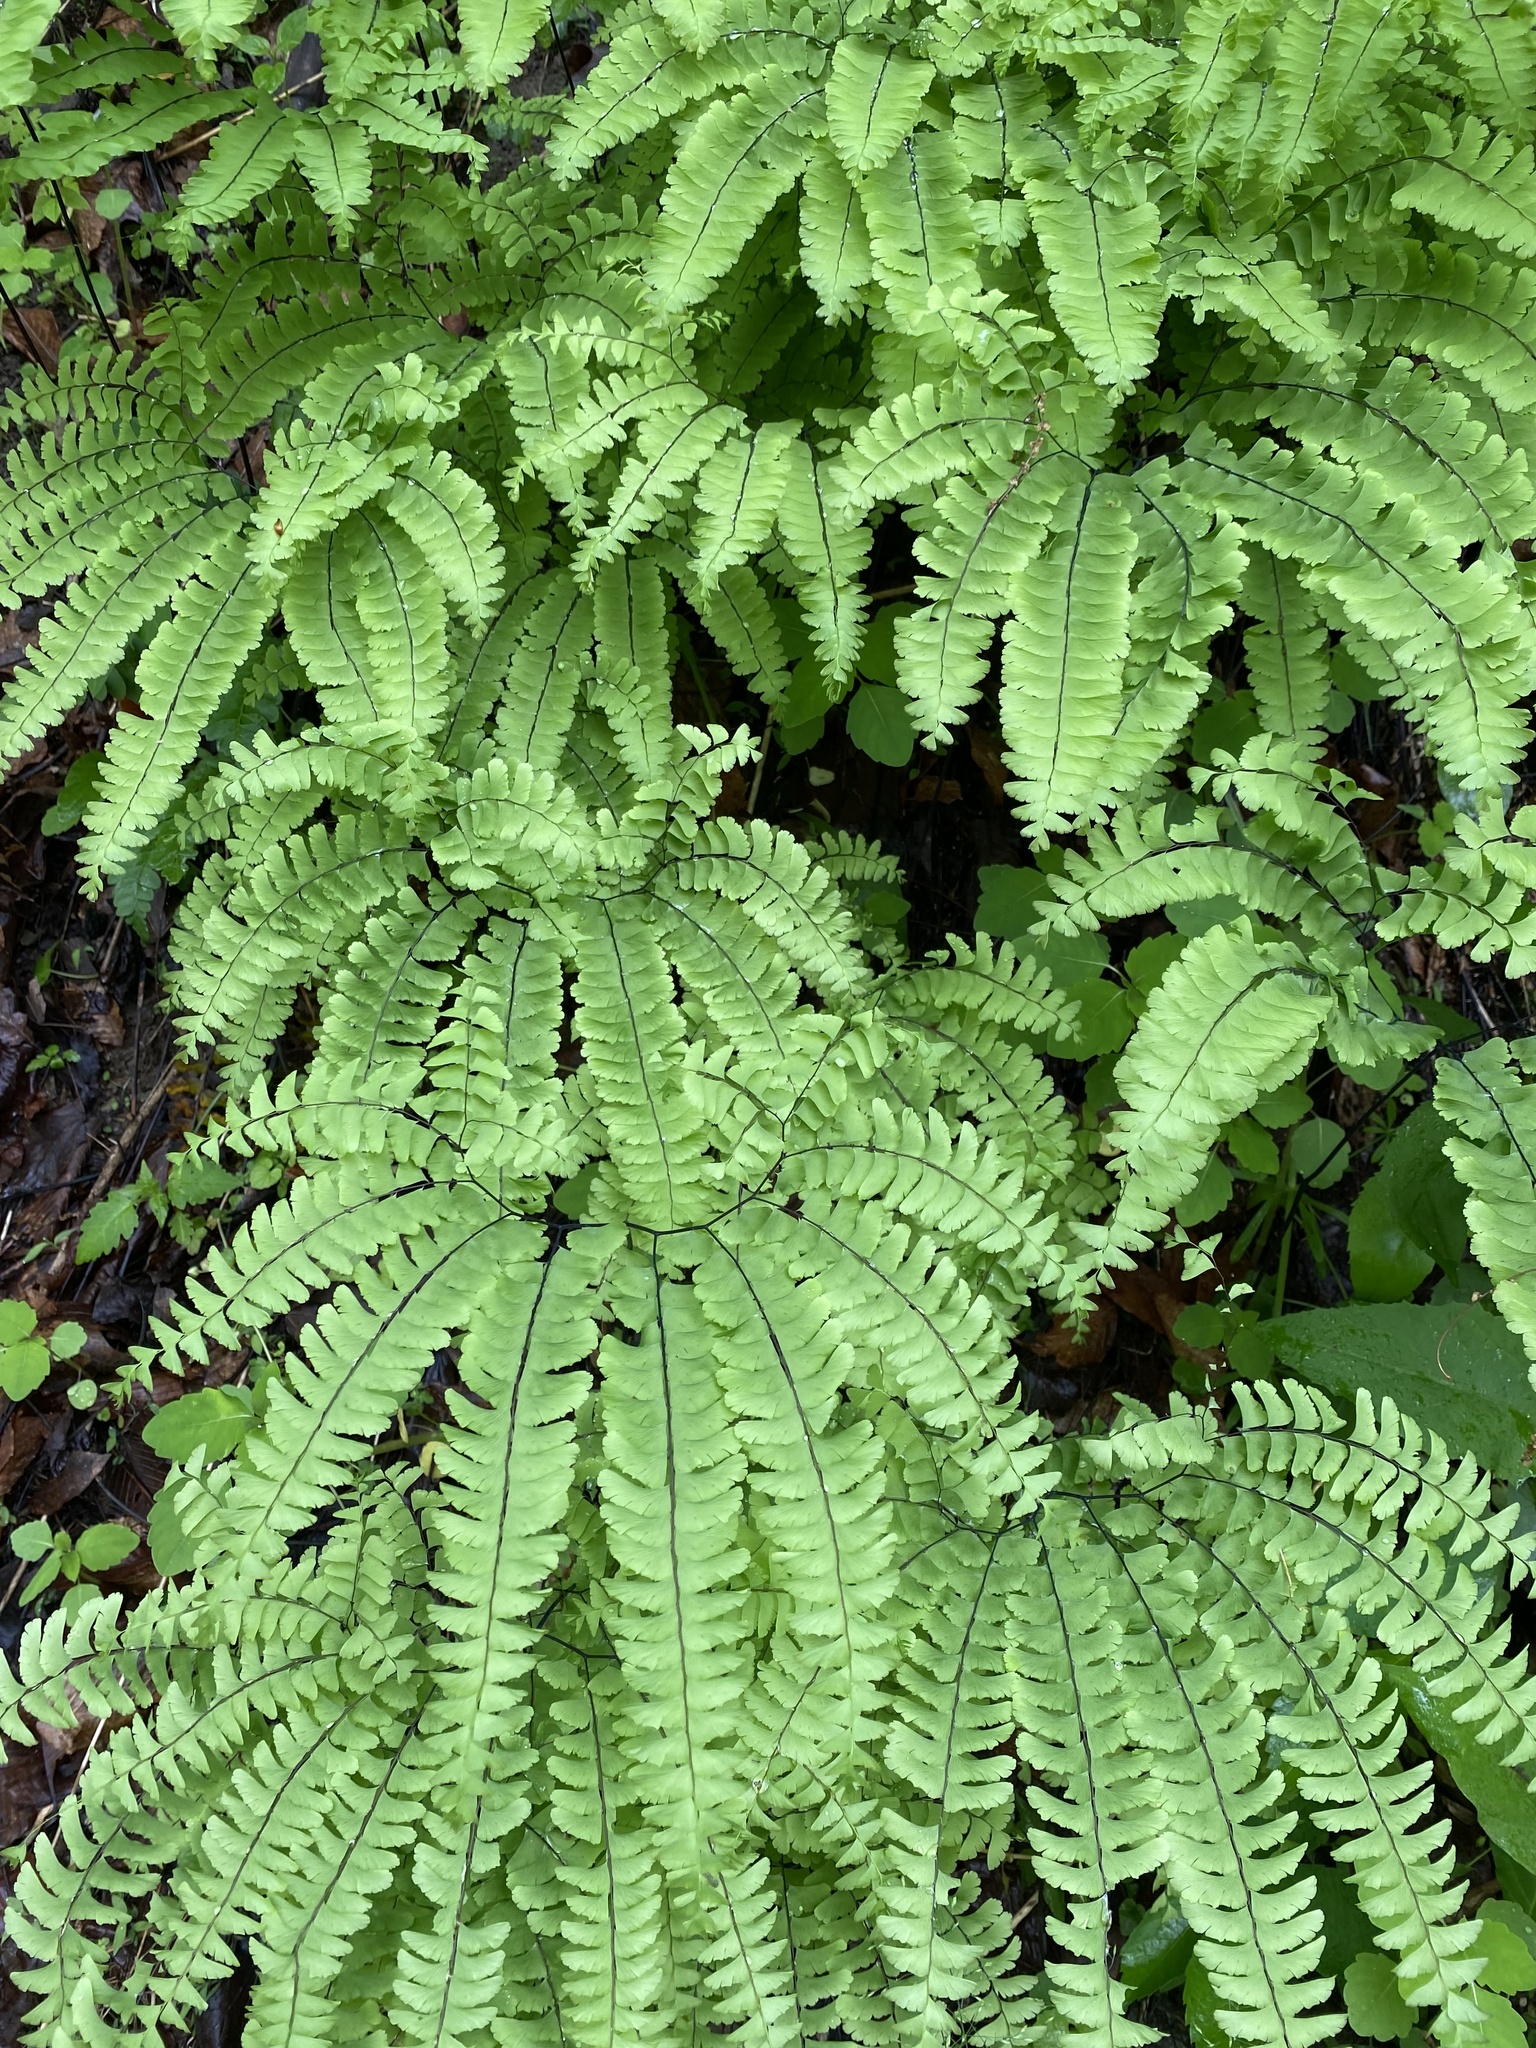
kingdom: Plantae
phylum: Tracheophyta
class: Polypodiopsida
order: Polypodiales
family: Pteridaceae
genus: Adiantum
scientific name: Adiantum pedatum
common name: Five-finger fern
